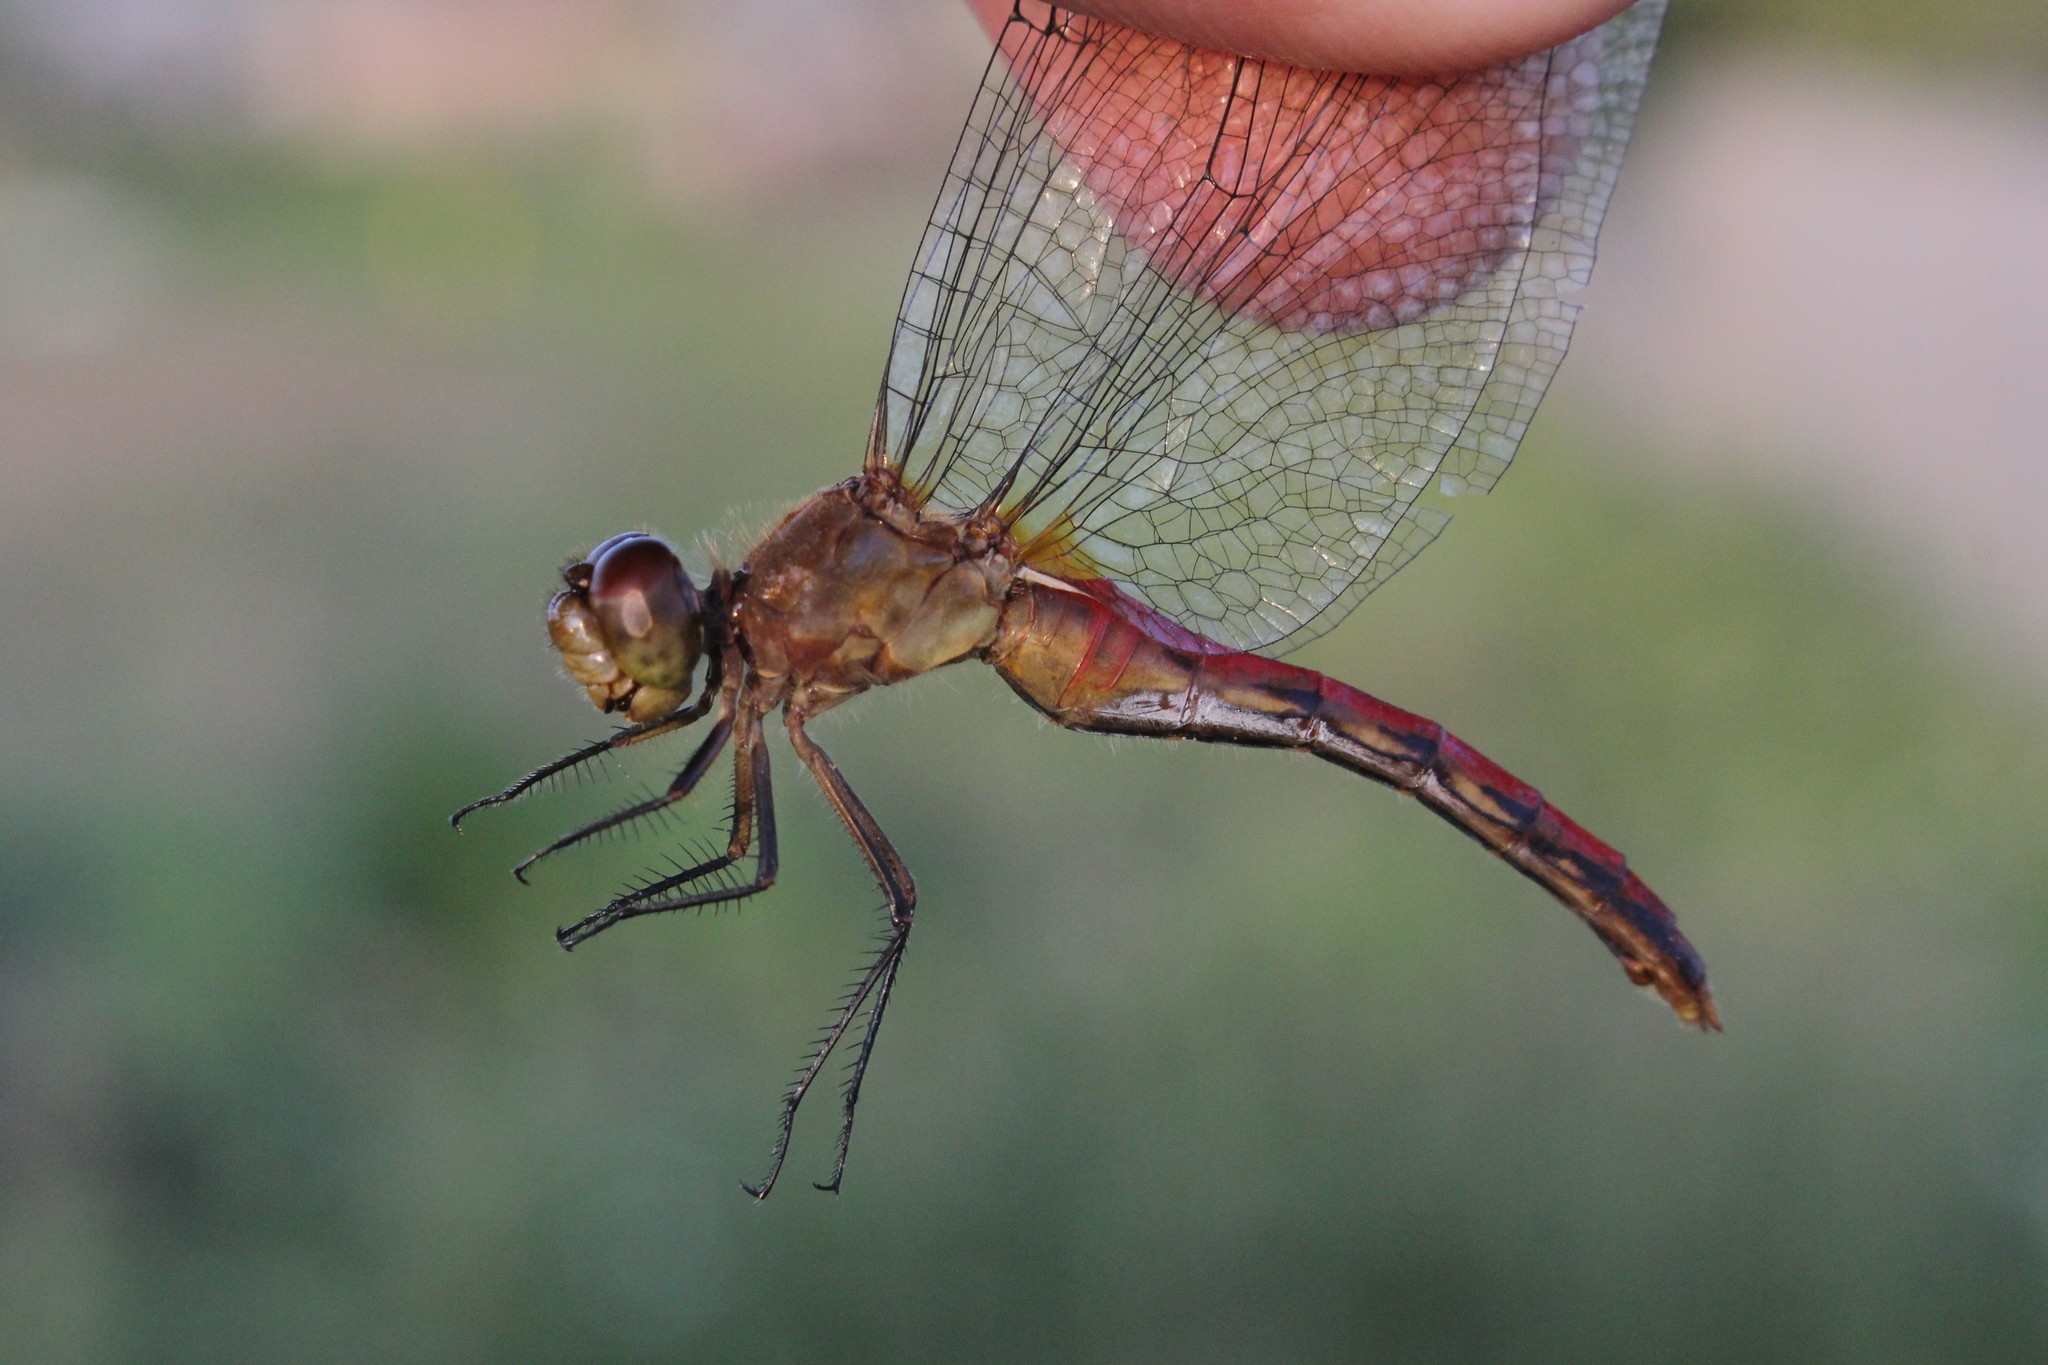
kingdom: Animalia
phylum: Arthropoda
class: Insecta
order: Odonata
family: Libellulidae
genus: Sympetrum
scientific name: Sympetrum rubicundulum
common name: Ruby meadowhawk
